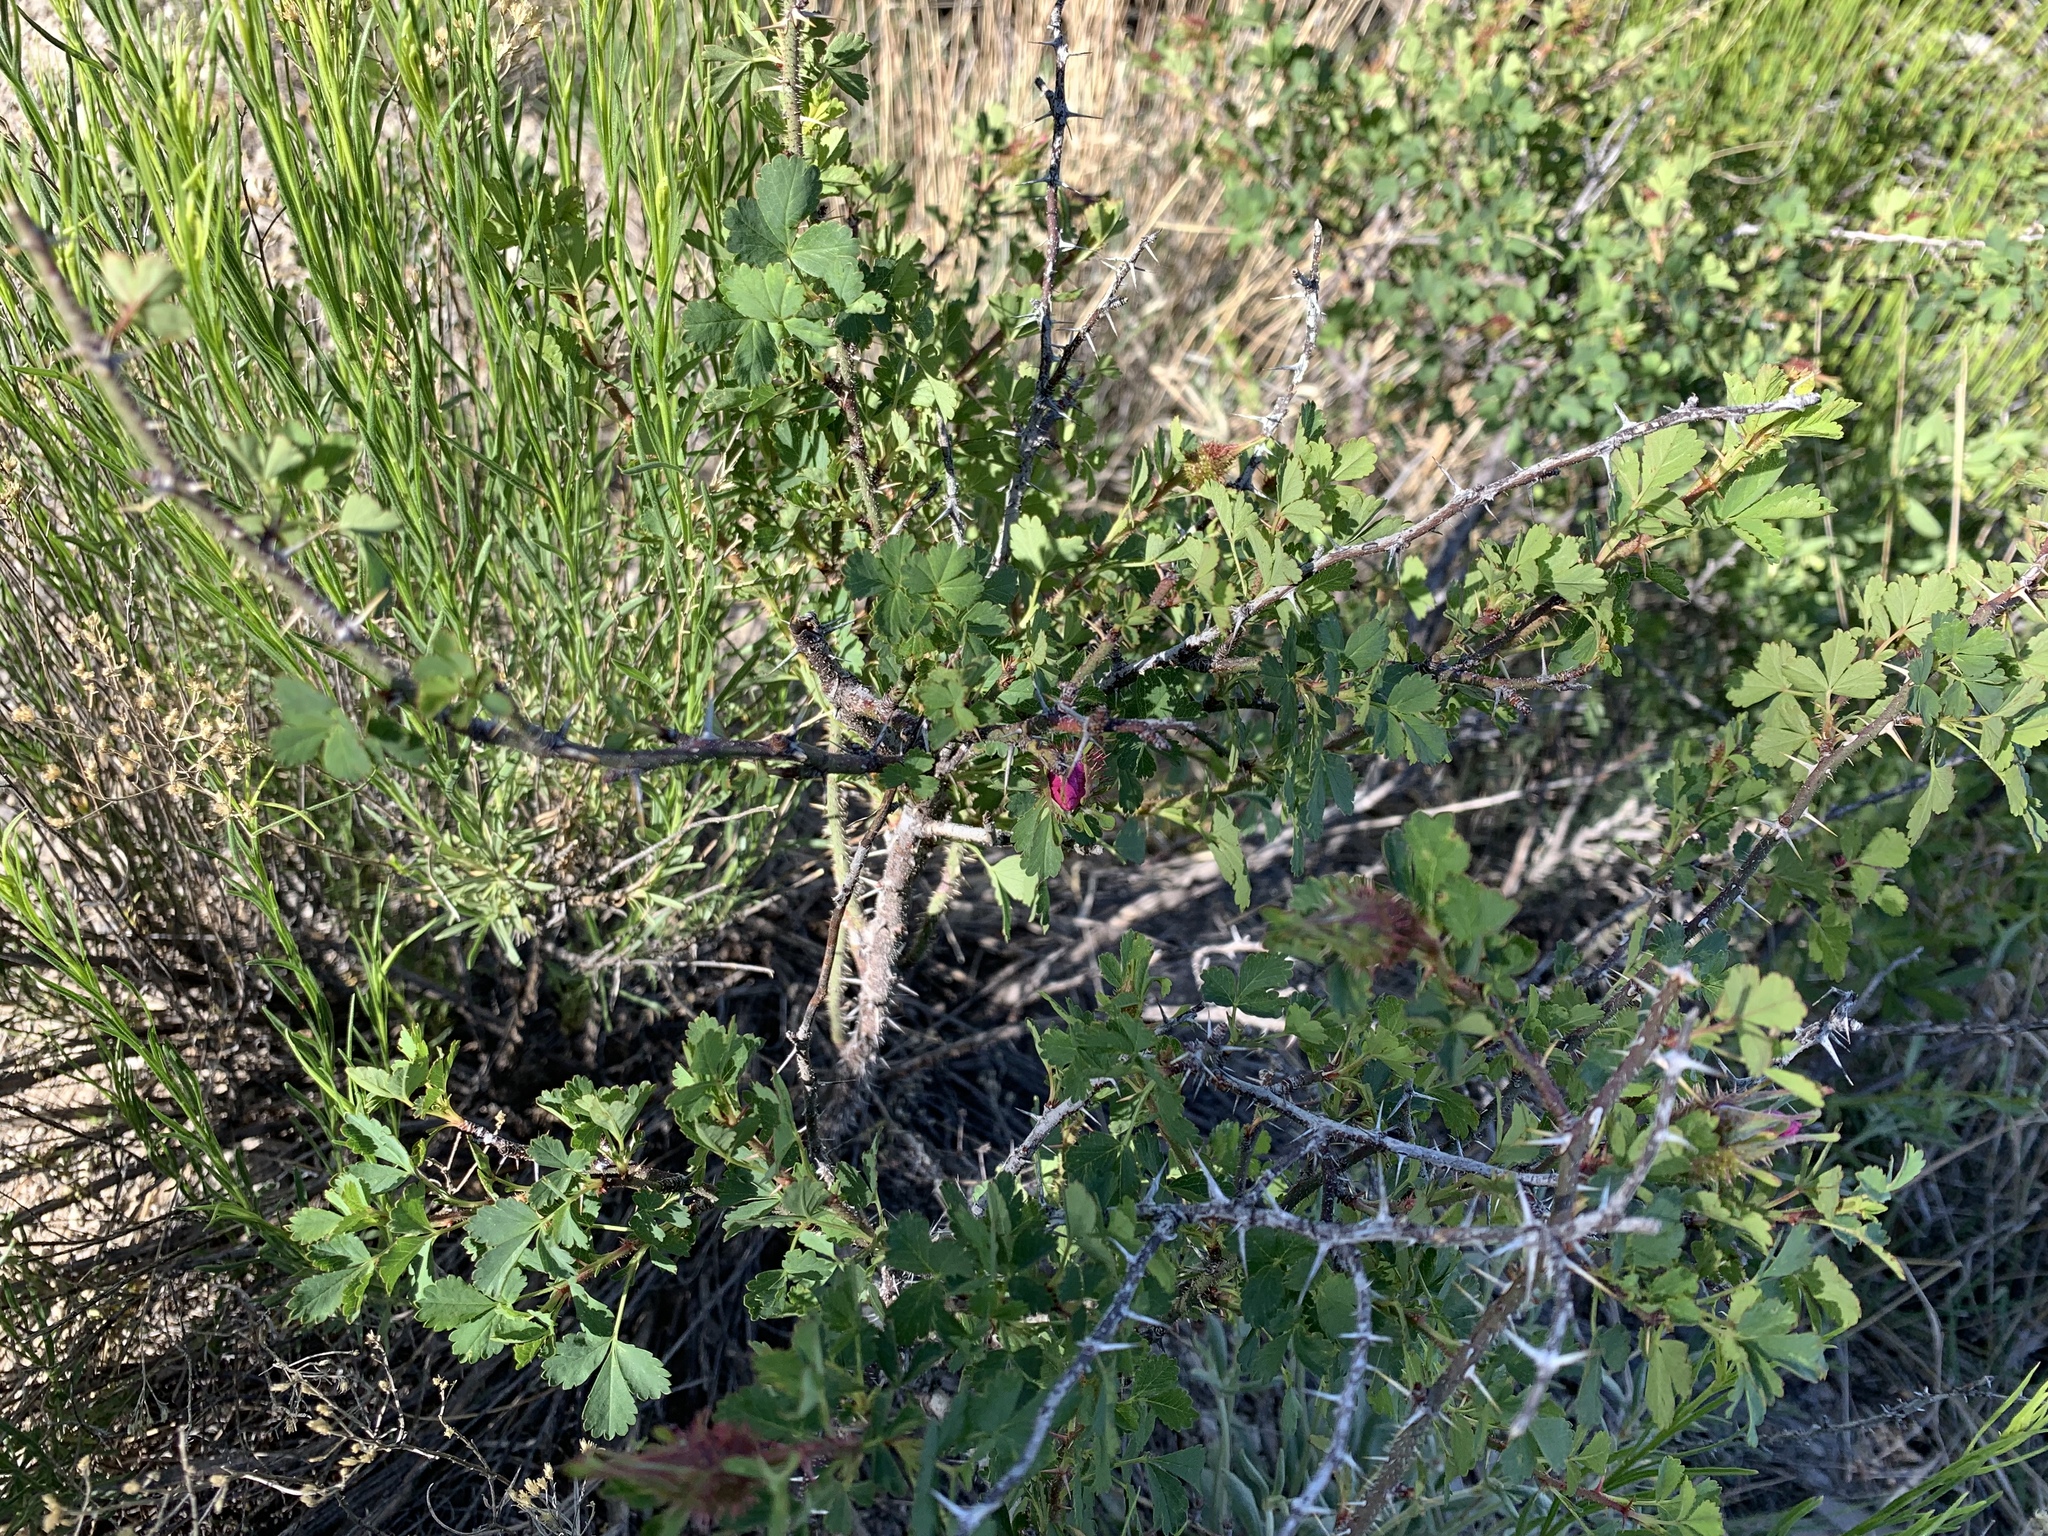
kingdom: Plantae
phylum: Tracheophyta
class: Magnoliopsida
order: Rosales
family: Rosaceae
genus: Rosa
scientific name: Rosa stellata
